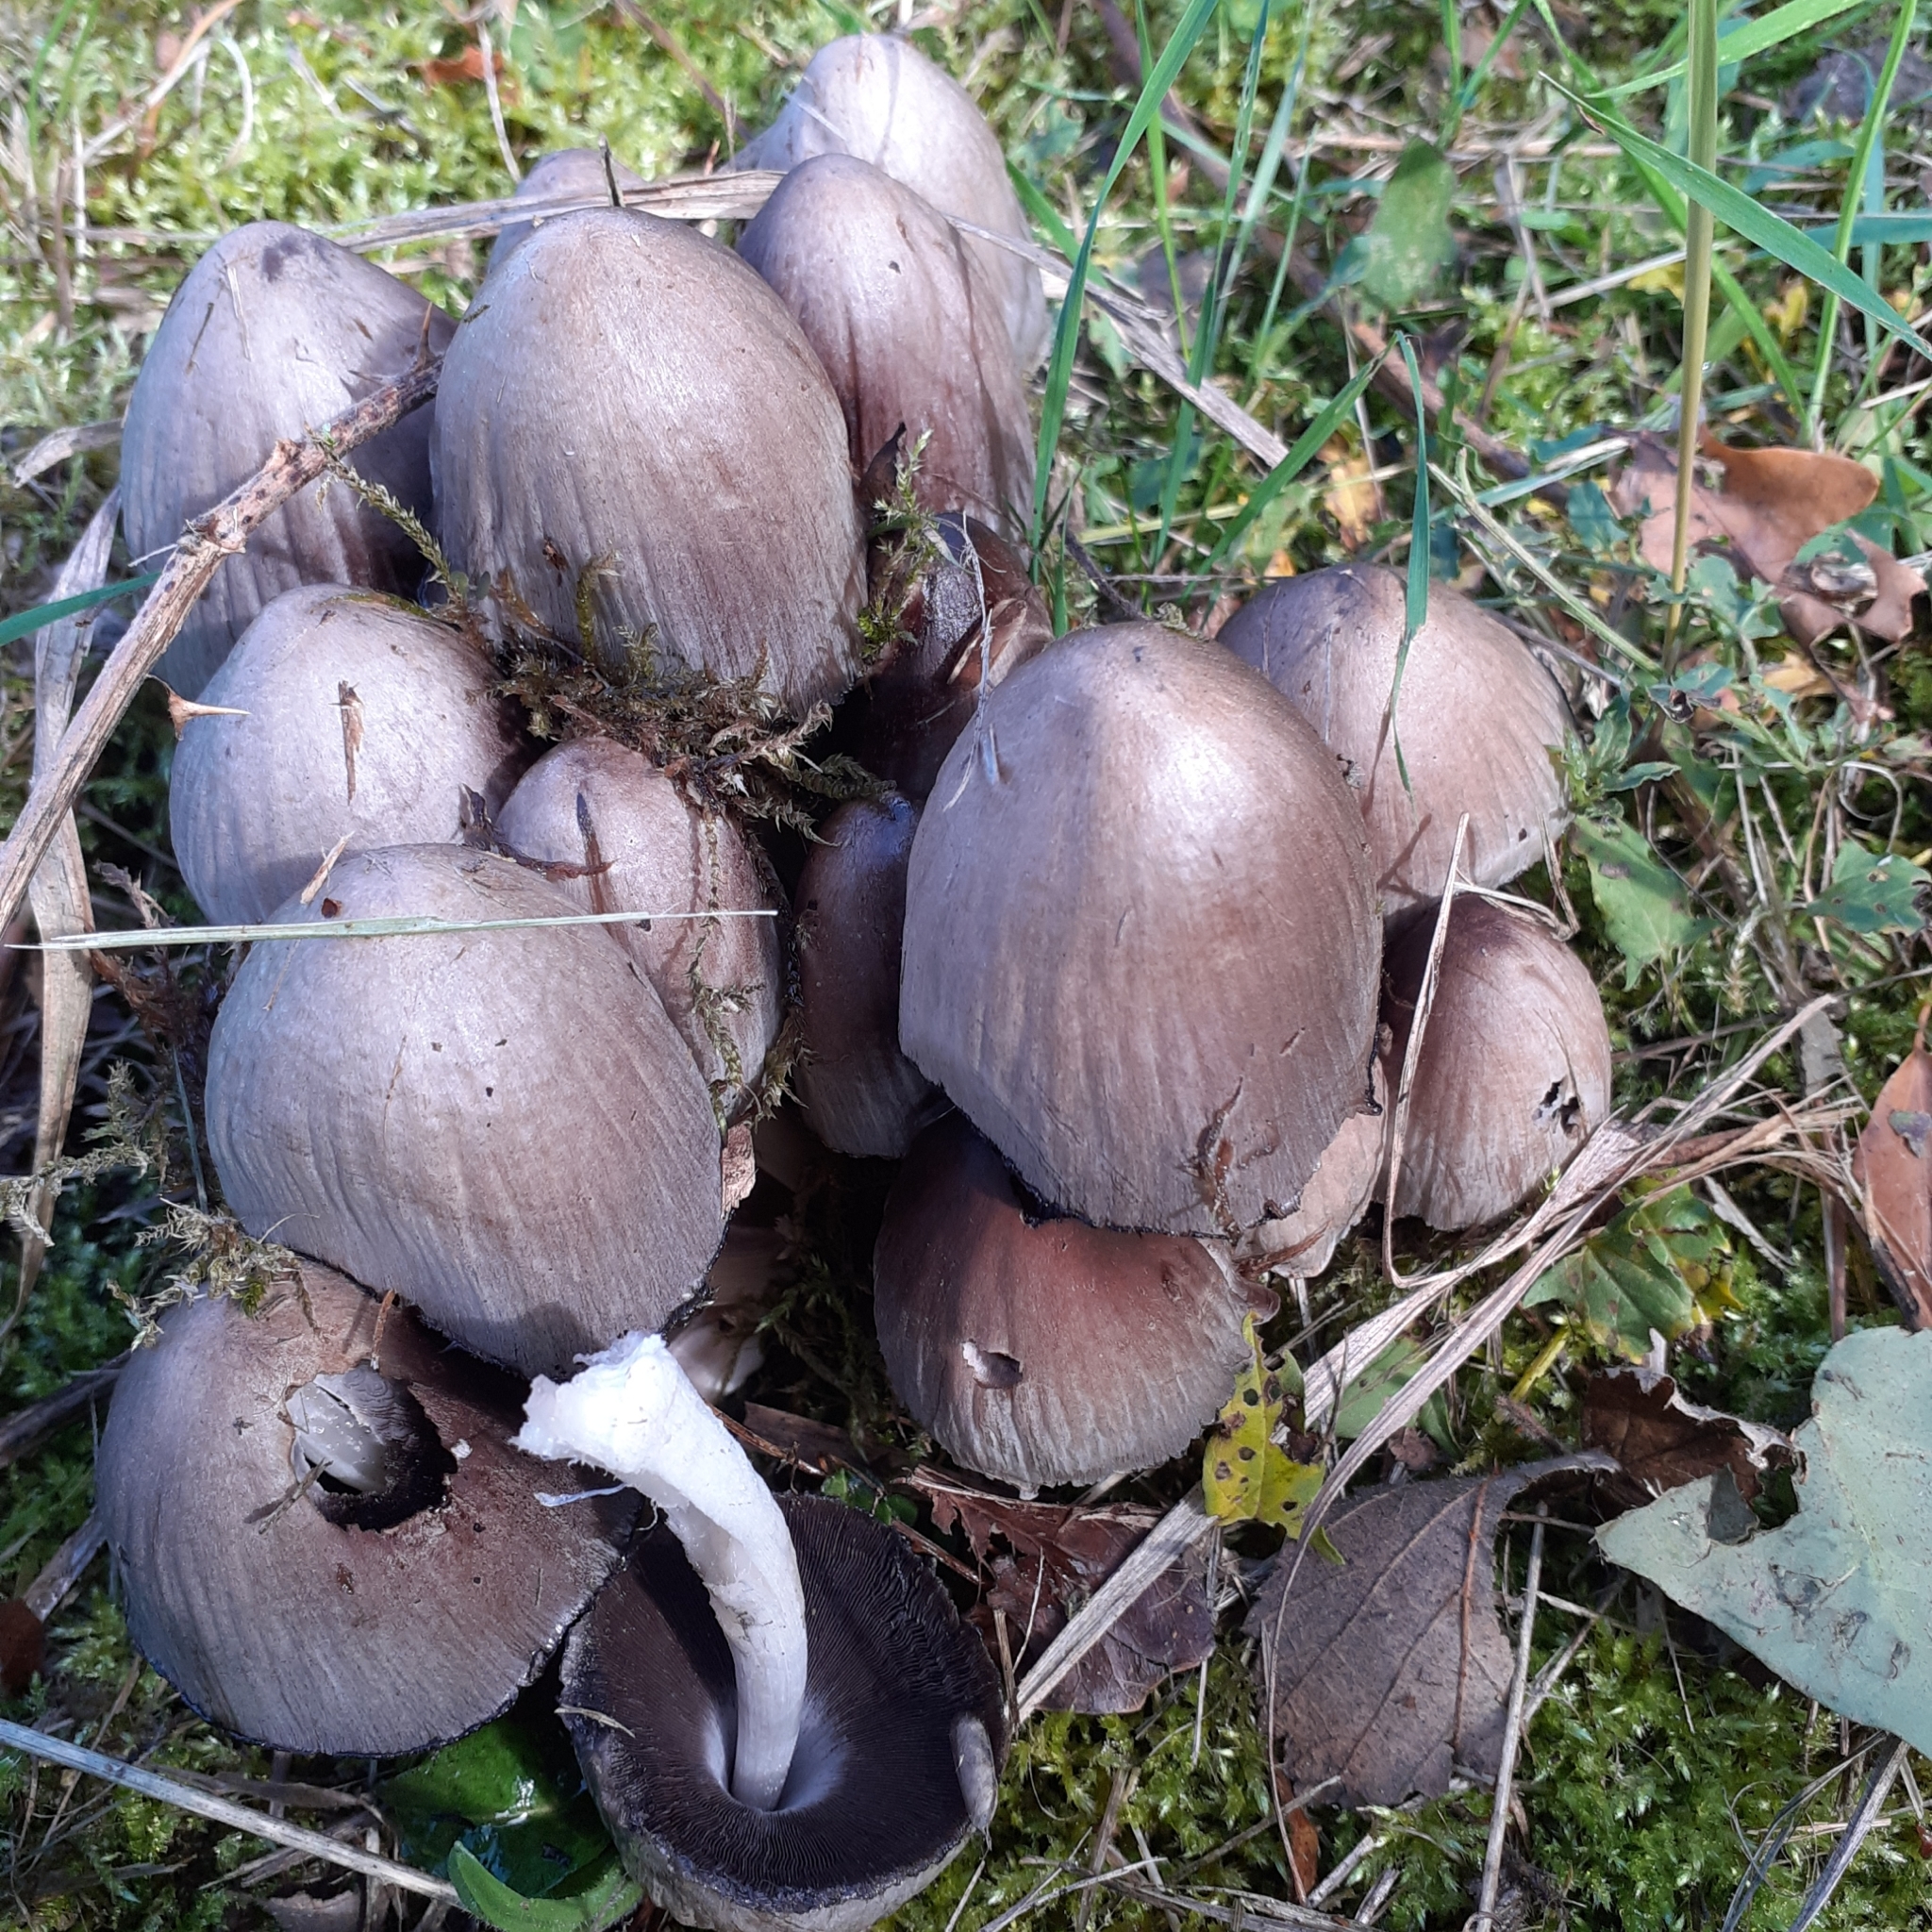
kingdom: Fungi
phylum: Basidiomycota
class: Agaricomycetes
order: Agaricales
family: Psathyrellaceae
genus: Coprinopsis
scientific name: Coprinopsis atramentaria
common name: Common ink-cap
